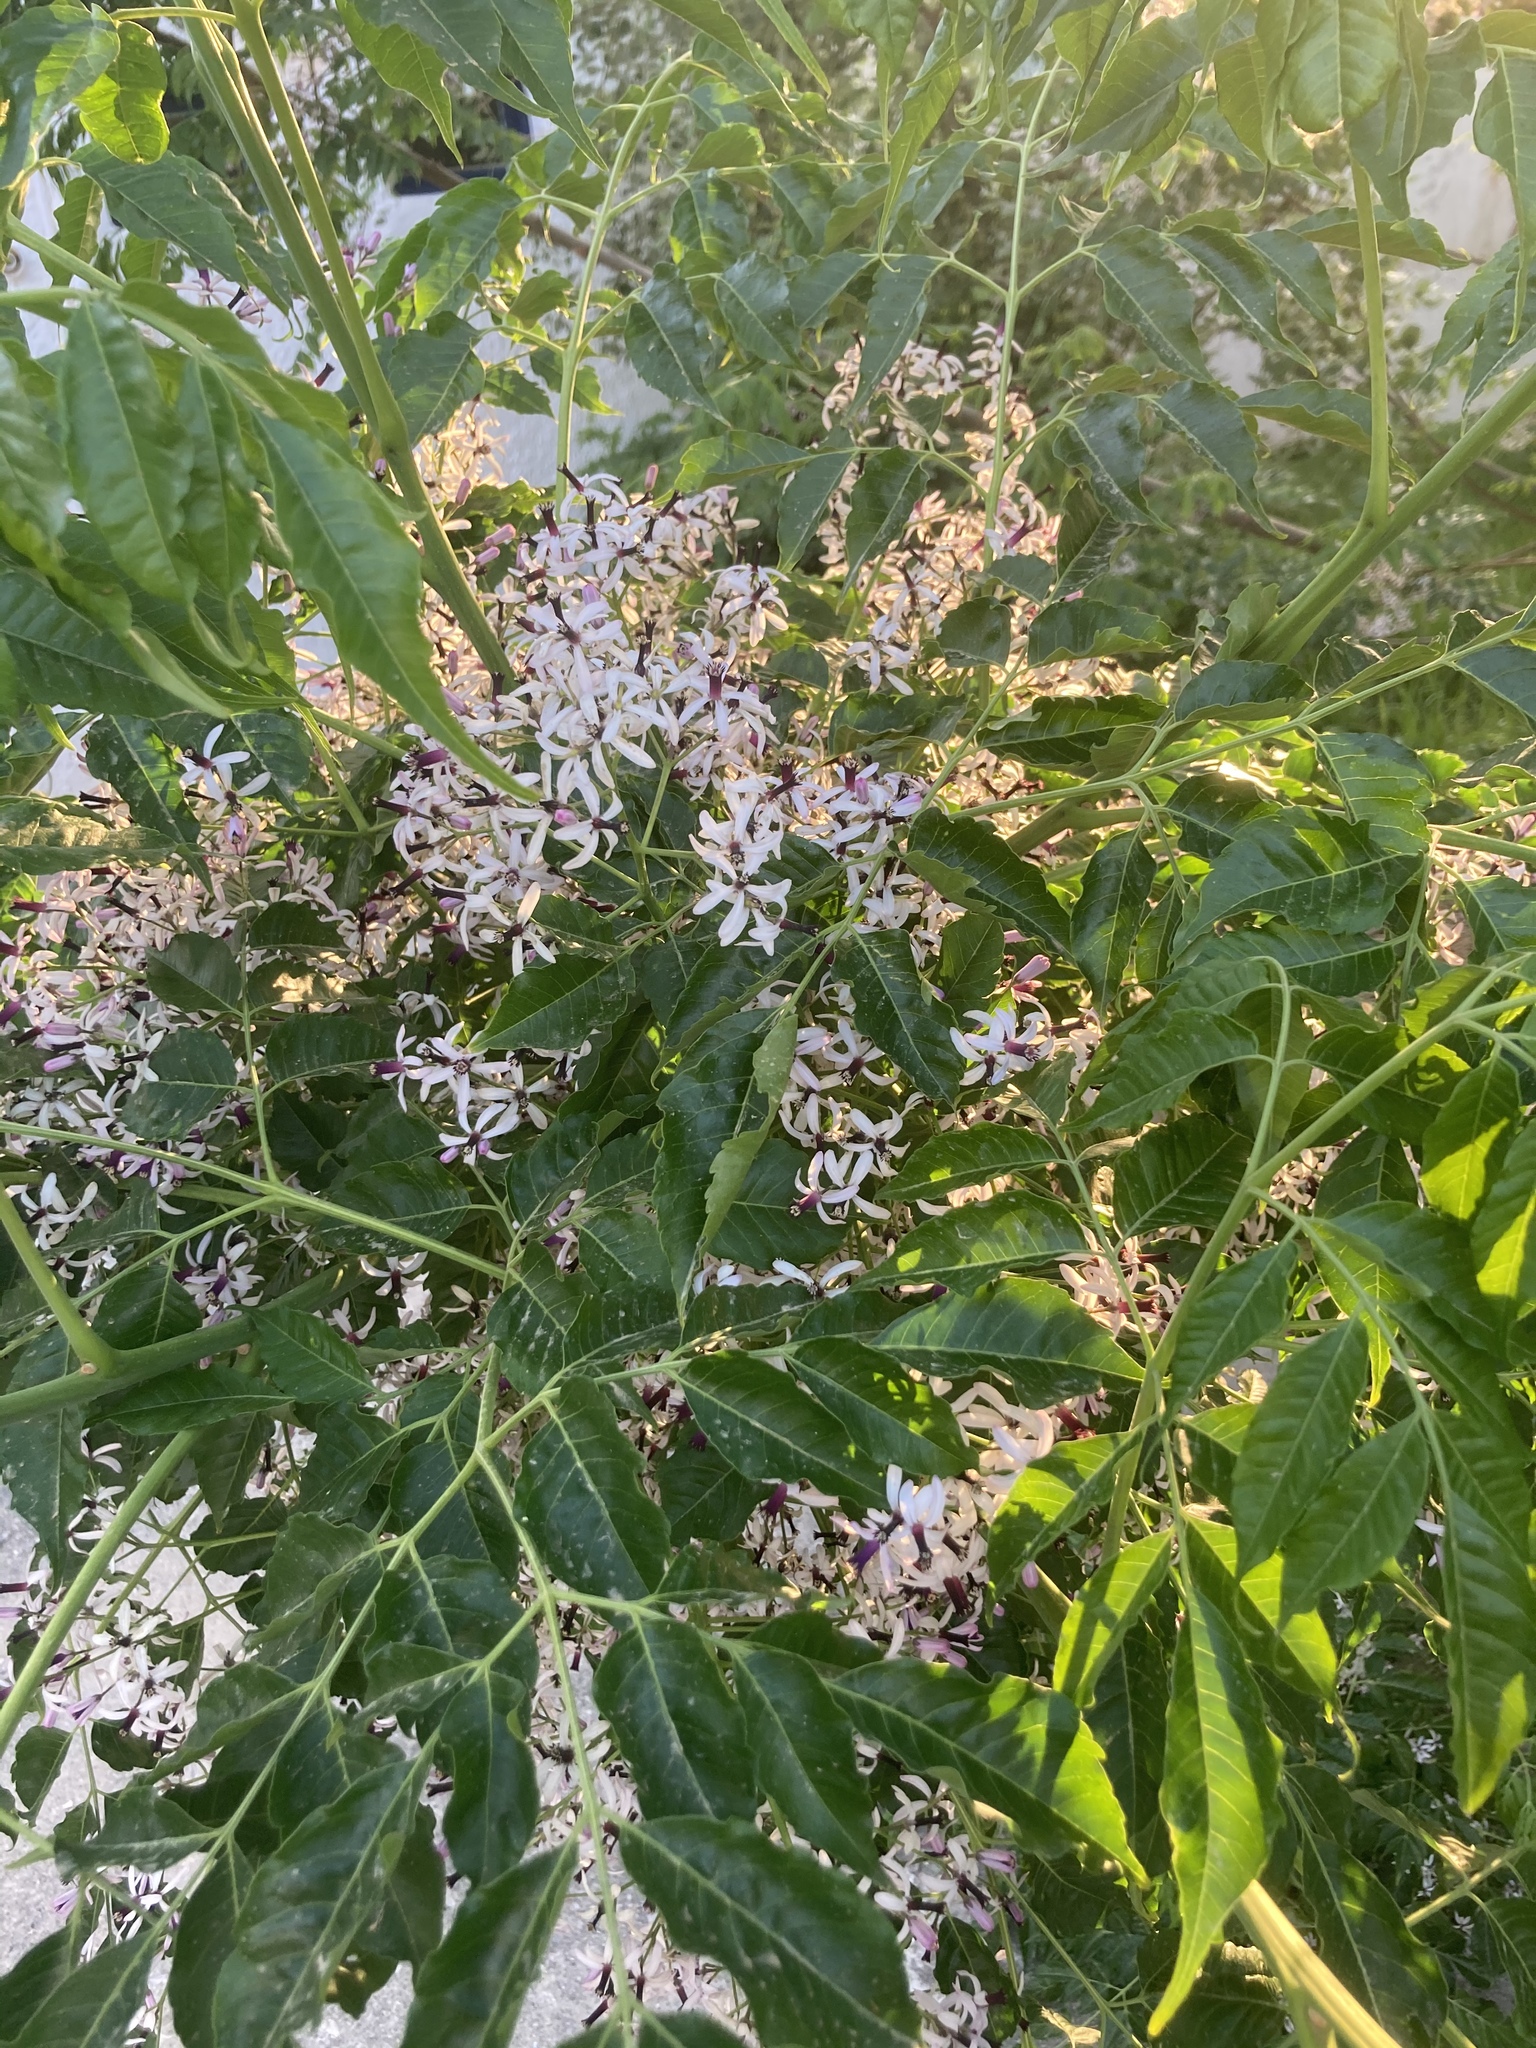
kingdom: Plantae
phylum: Tracheophyta
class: Magnoliopsida
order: Sapindales
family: Meliaceae
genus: Melia
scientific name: Melia azedarach
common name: Chinaberrytree
